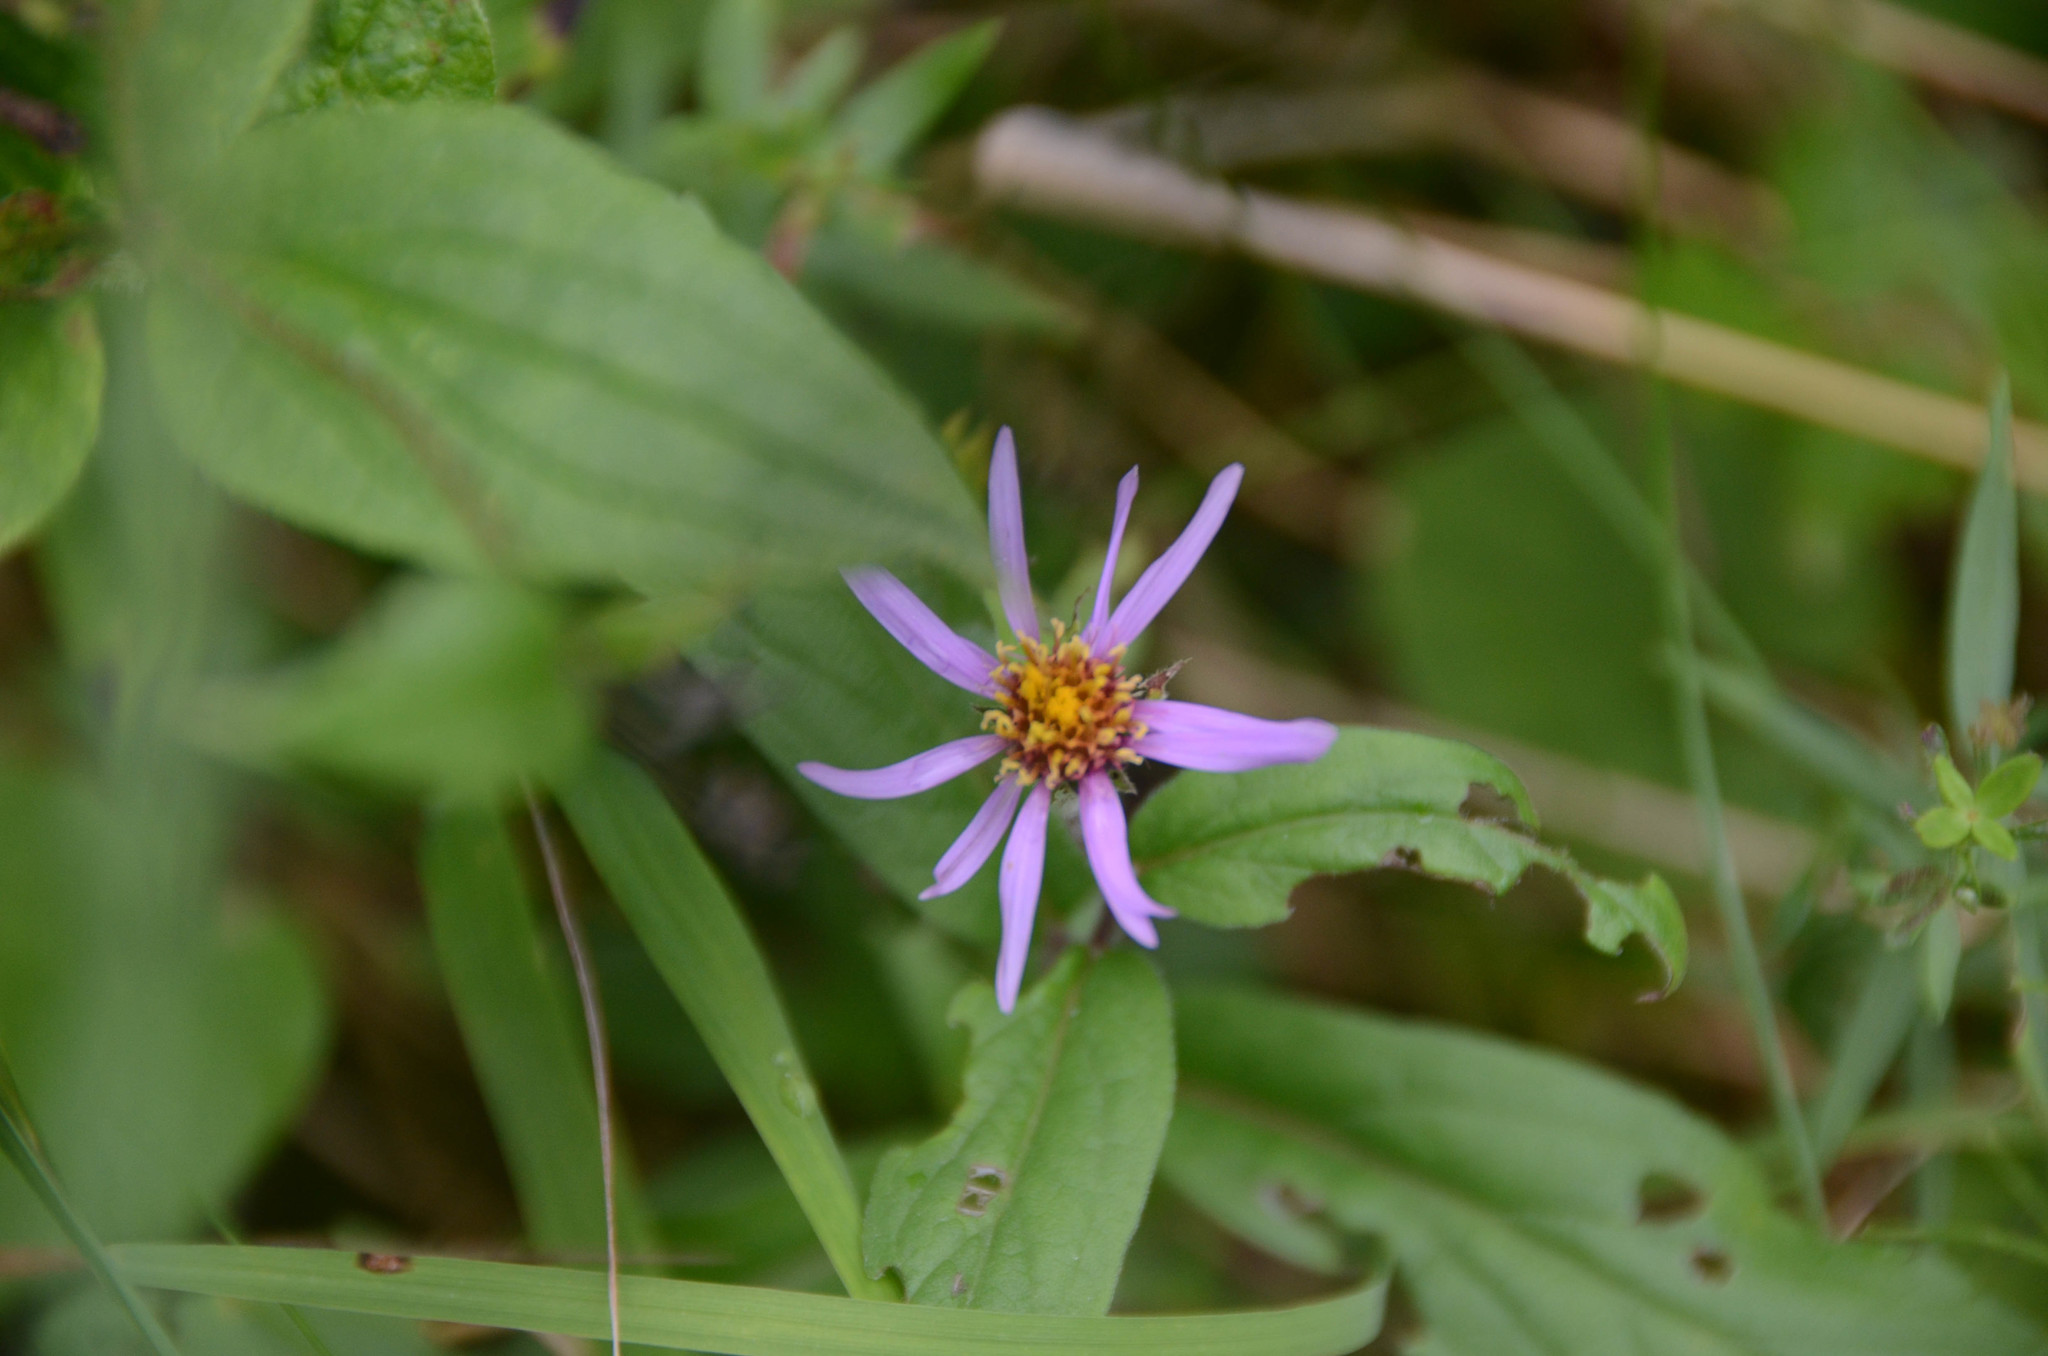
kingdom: Plantae
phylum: Tracheophyta
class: Magnoliopsida
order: Asterales
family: Asteraceae
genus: Eurybia
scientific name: Eurybia sibirica
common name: Arctic aster
